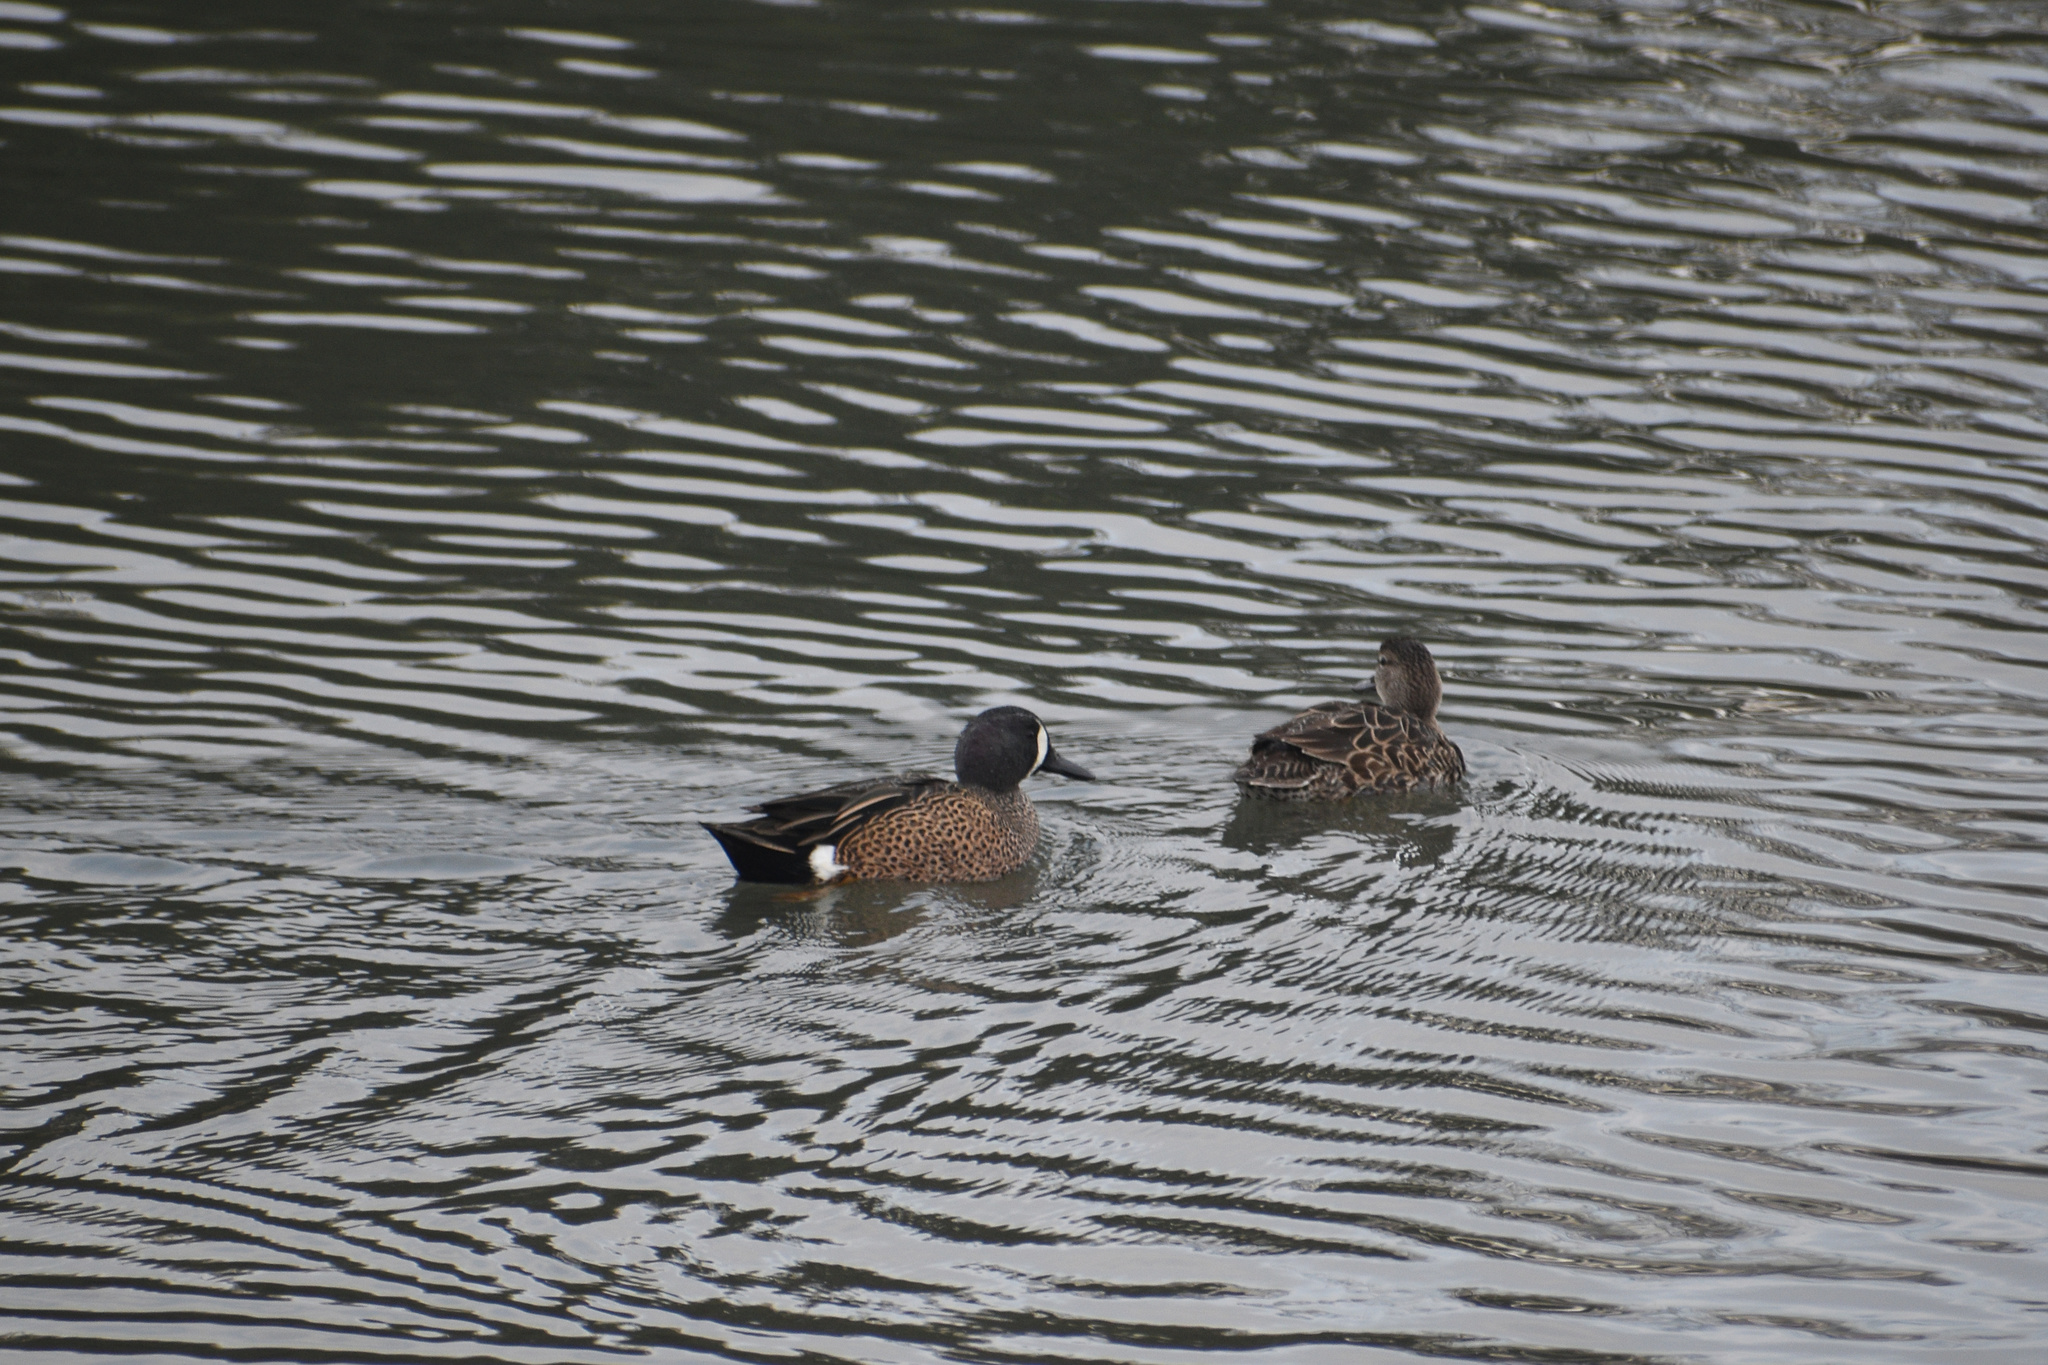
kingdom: Animalia
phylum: Chordata
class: Aves
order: Anseriformes
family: Anatidae
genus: Spatula
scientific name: Spatula discors
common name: Blue-winged teal
